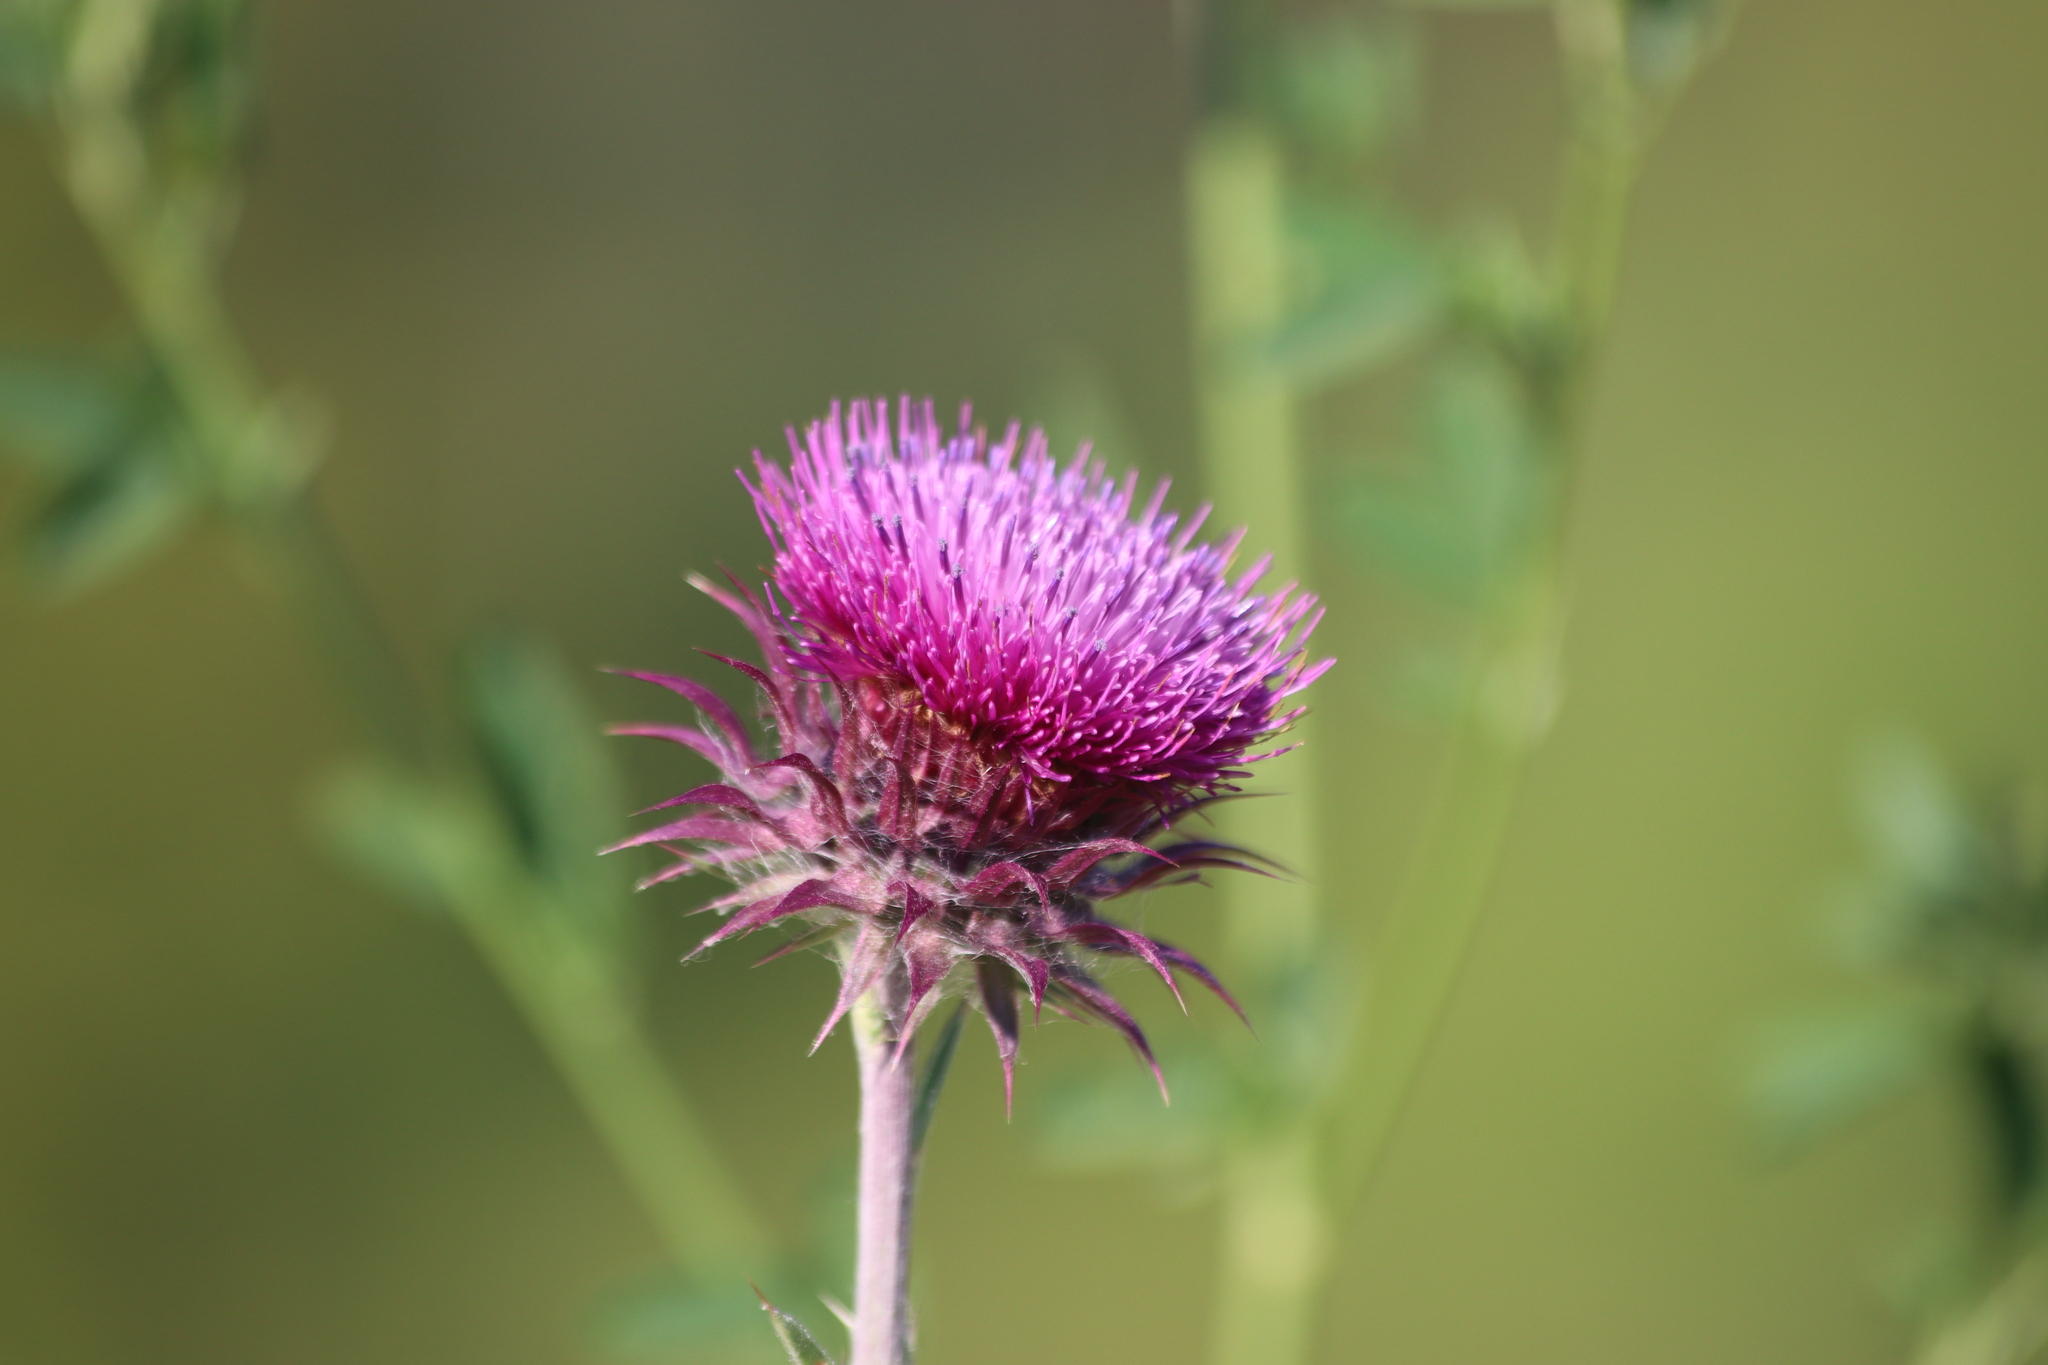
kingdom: Plantae
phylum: Tracheophyta
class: Magnoliopsida
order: Asterales
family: Asteraceae
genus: Carduus
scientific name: Carduus nutans
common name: Musk thistle
